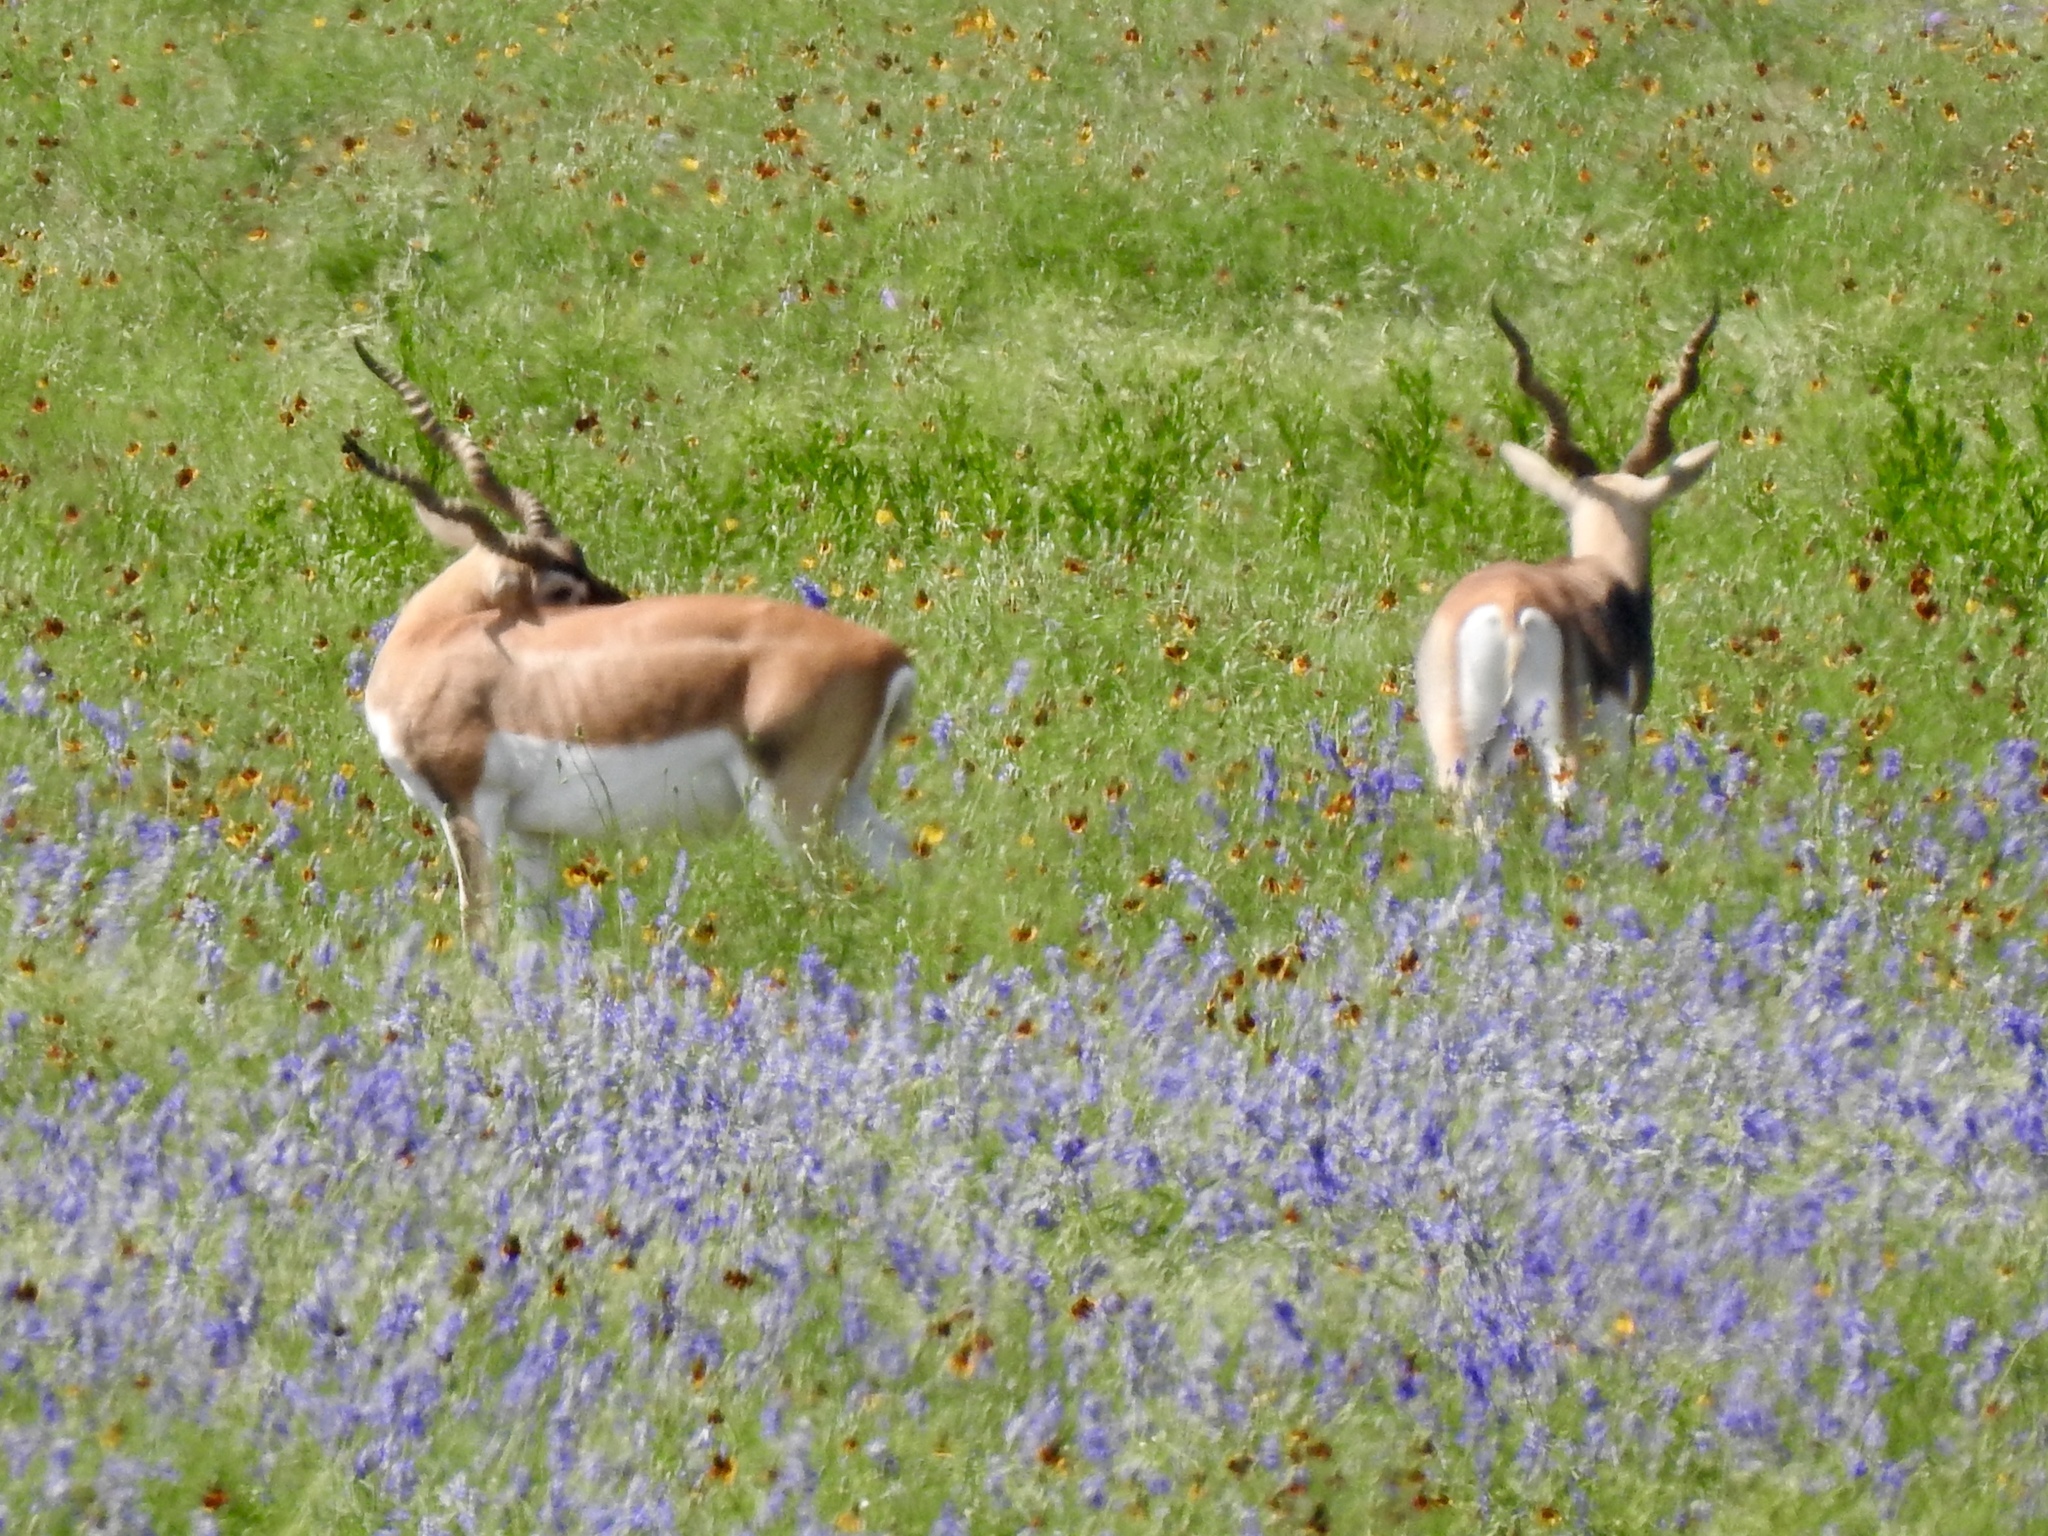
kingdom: Animalia
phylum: Chordata
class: Mammalia
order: Artiodactyla
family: Bovidae
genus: Antilope
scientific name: Antilope cervicapra
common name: Blackbuck
